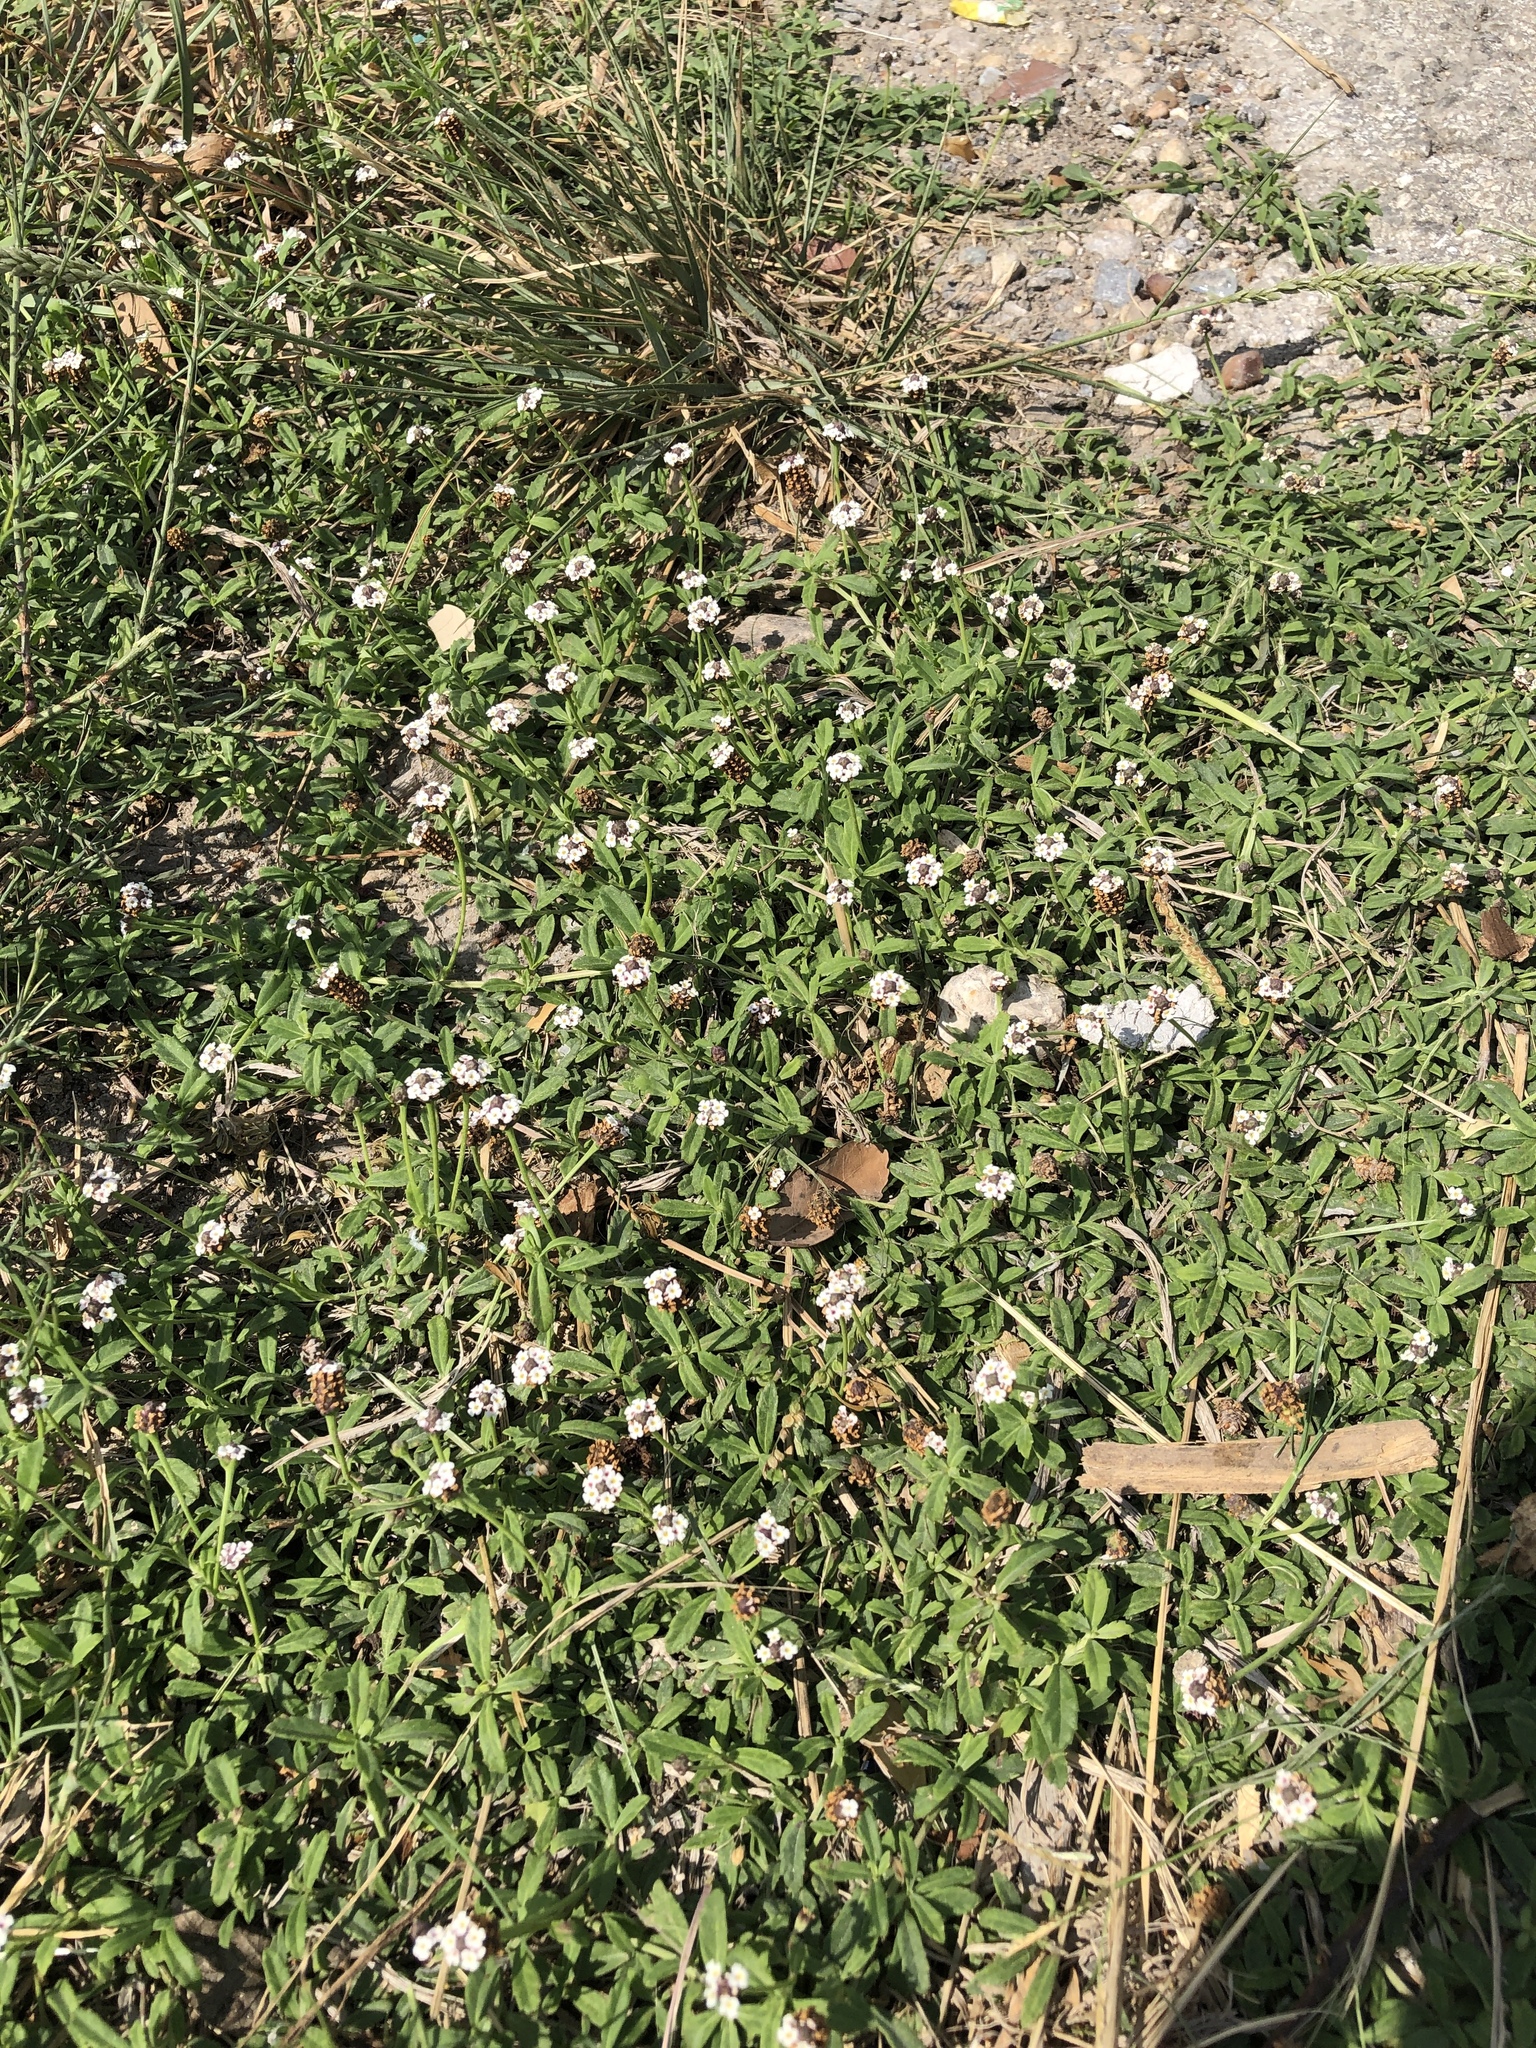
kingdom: Plantae
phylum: Tracheophyta
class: Magnoliopsida
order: Lamiales
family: Verbenaceae
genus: Phyla
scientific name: Phyla nodiflora
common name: Frogfruit
